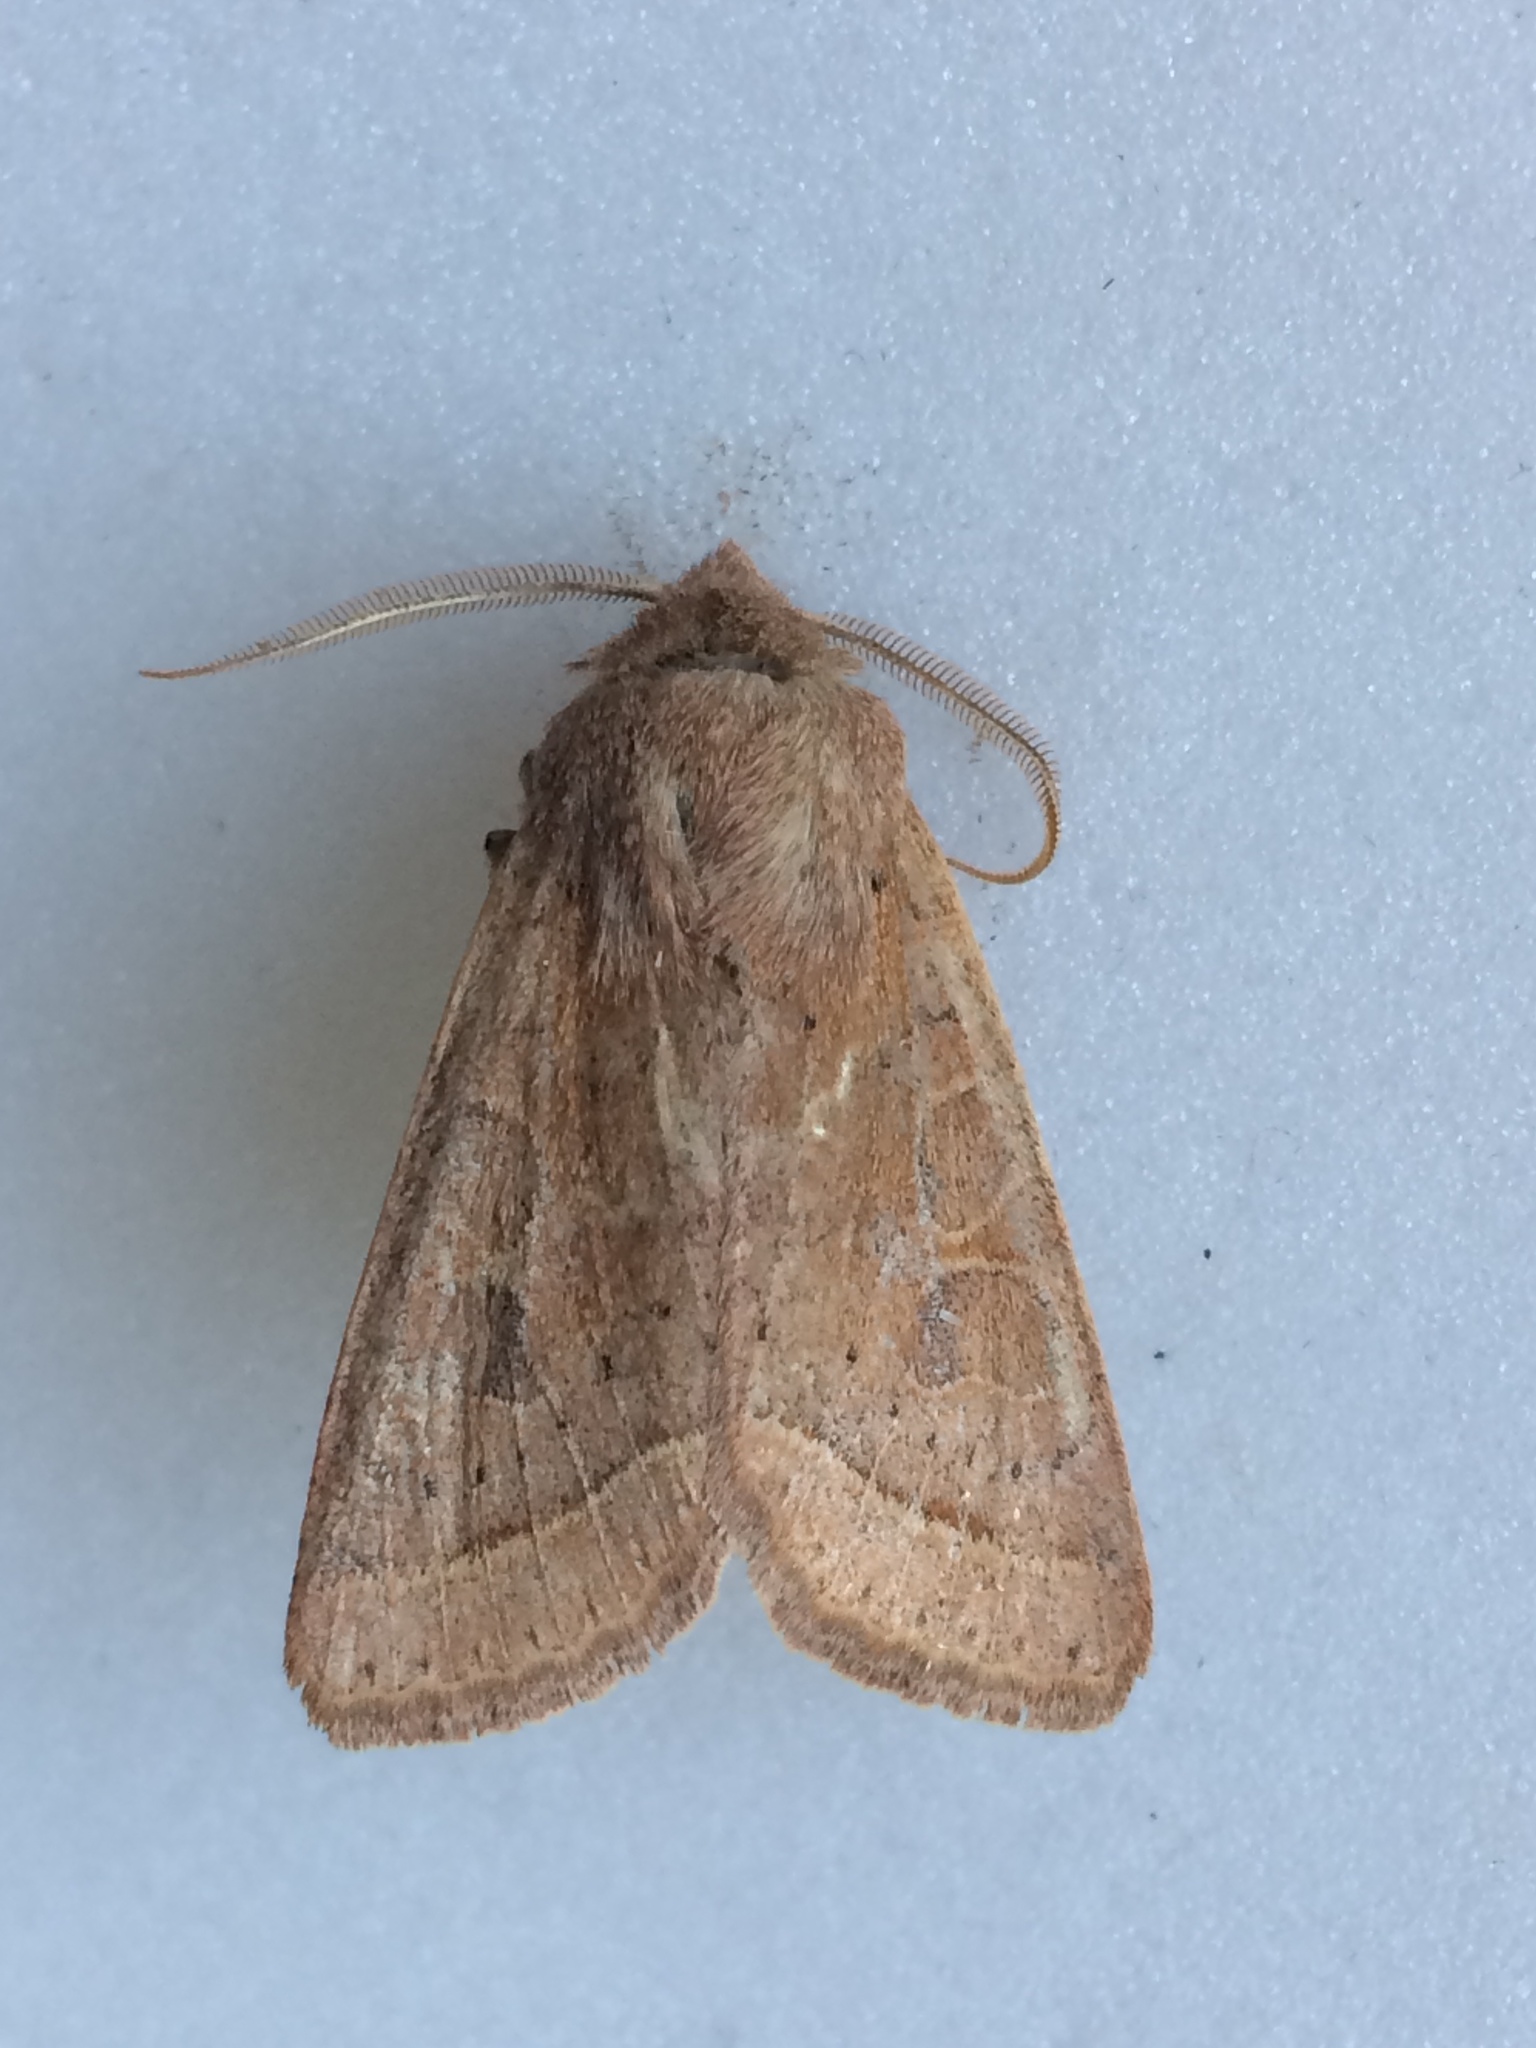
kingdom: Animalia
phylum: Arthropoda
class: Insecta
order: Lepidoptera
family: Noctuidae
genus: Orthosia
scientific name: Orthosia cerasi
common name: Common quaker
